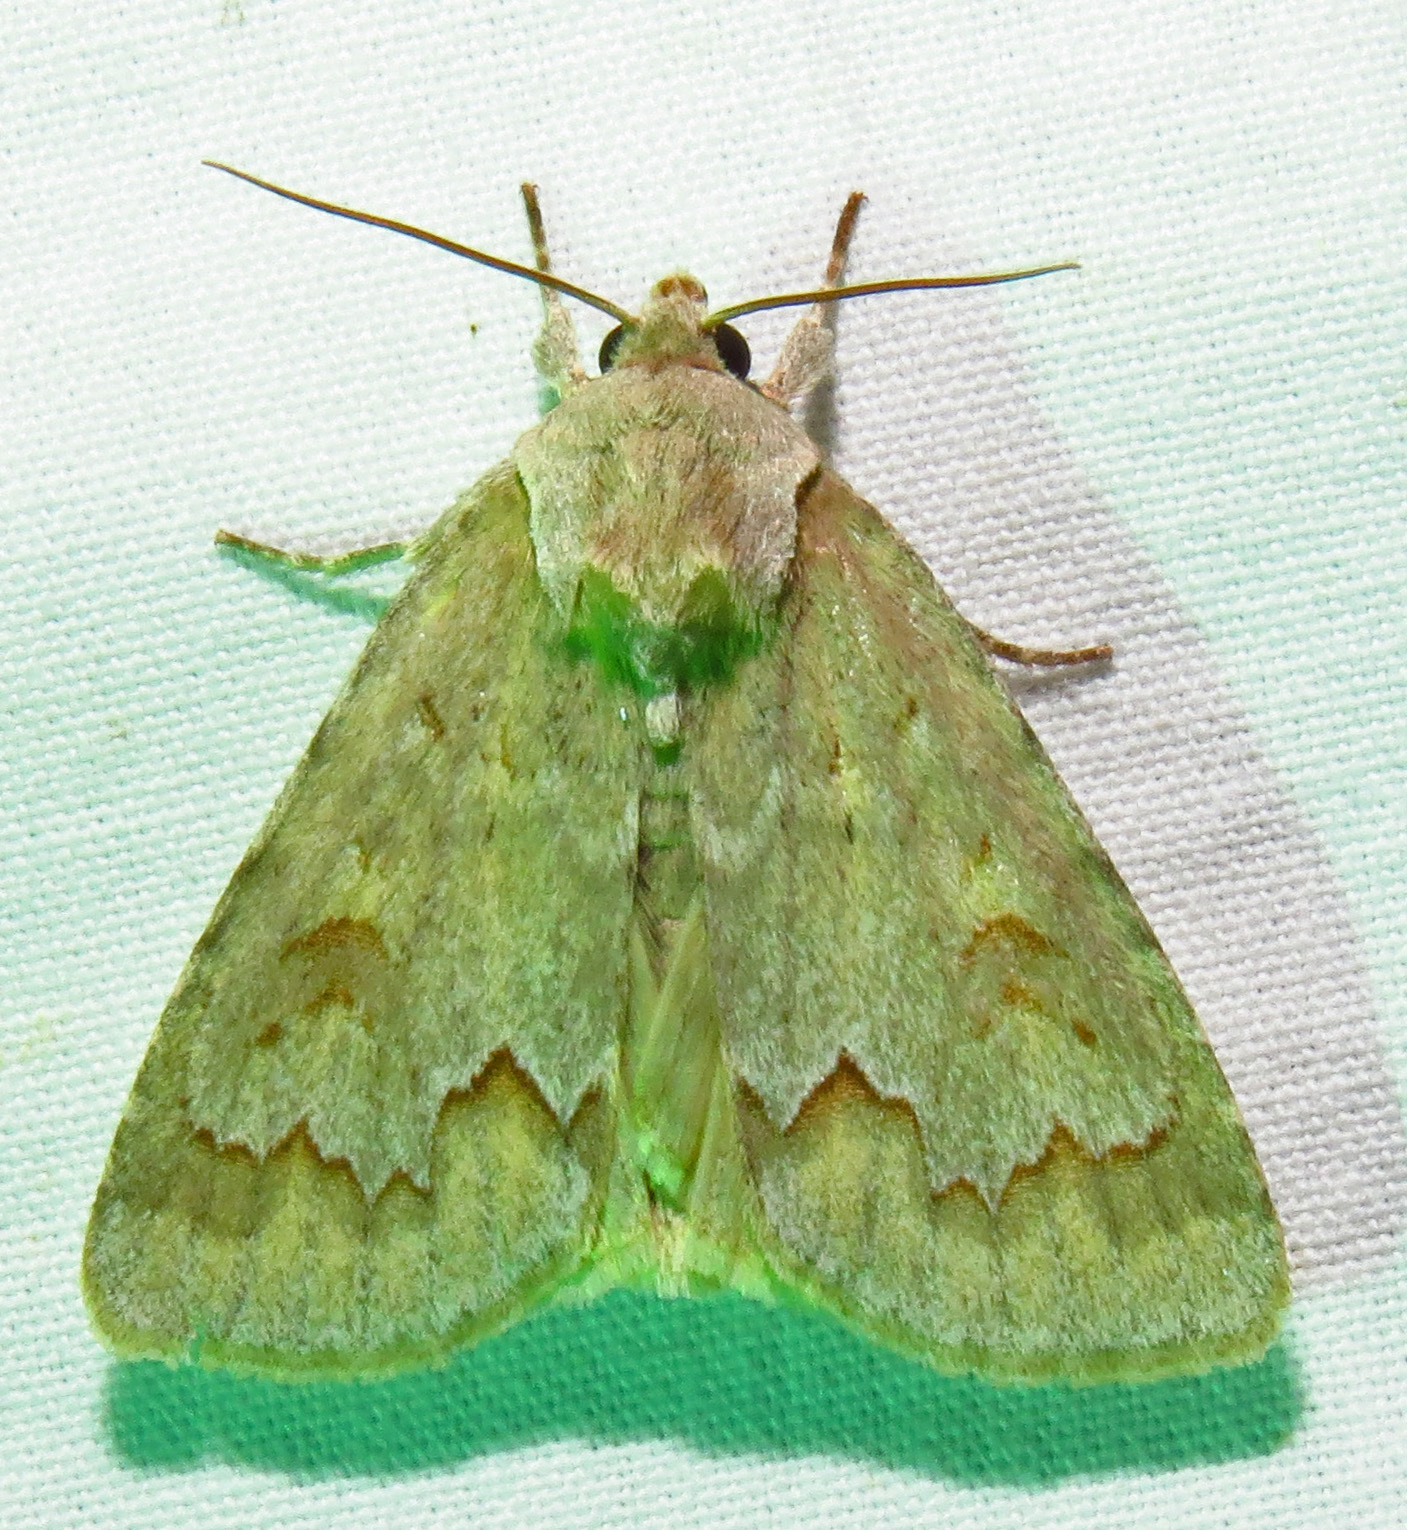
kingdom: Animalia
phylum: Arthropoda
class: Insecta
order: Lepidoptera
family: Noctuidae
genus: Acronicta
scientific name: Acronicta betulae
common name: Birch dagger moth
